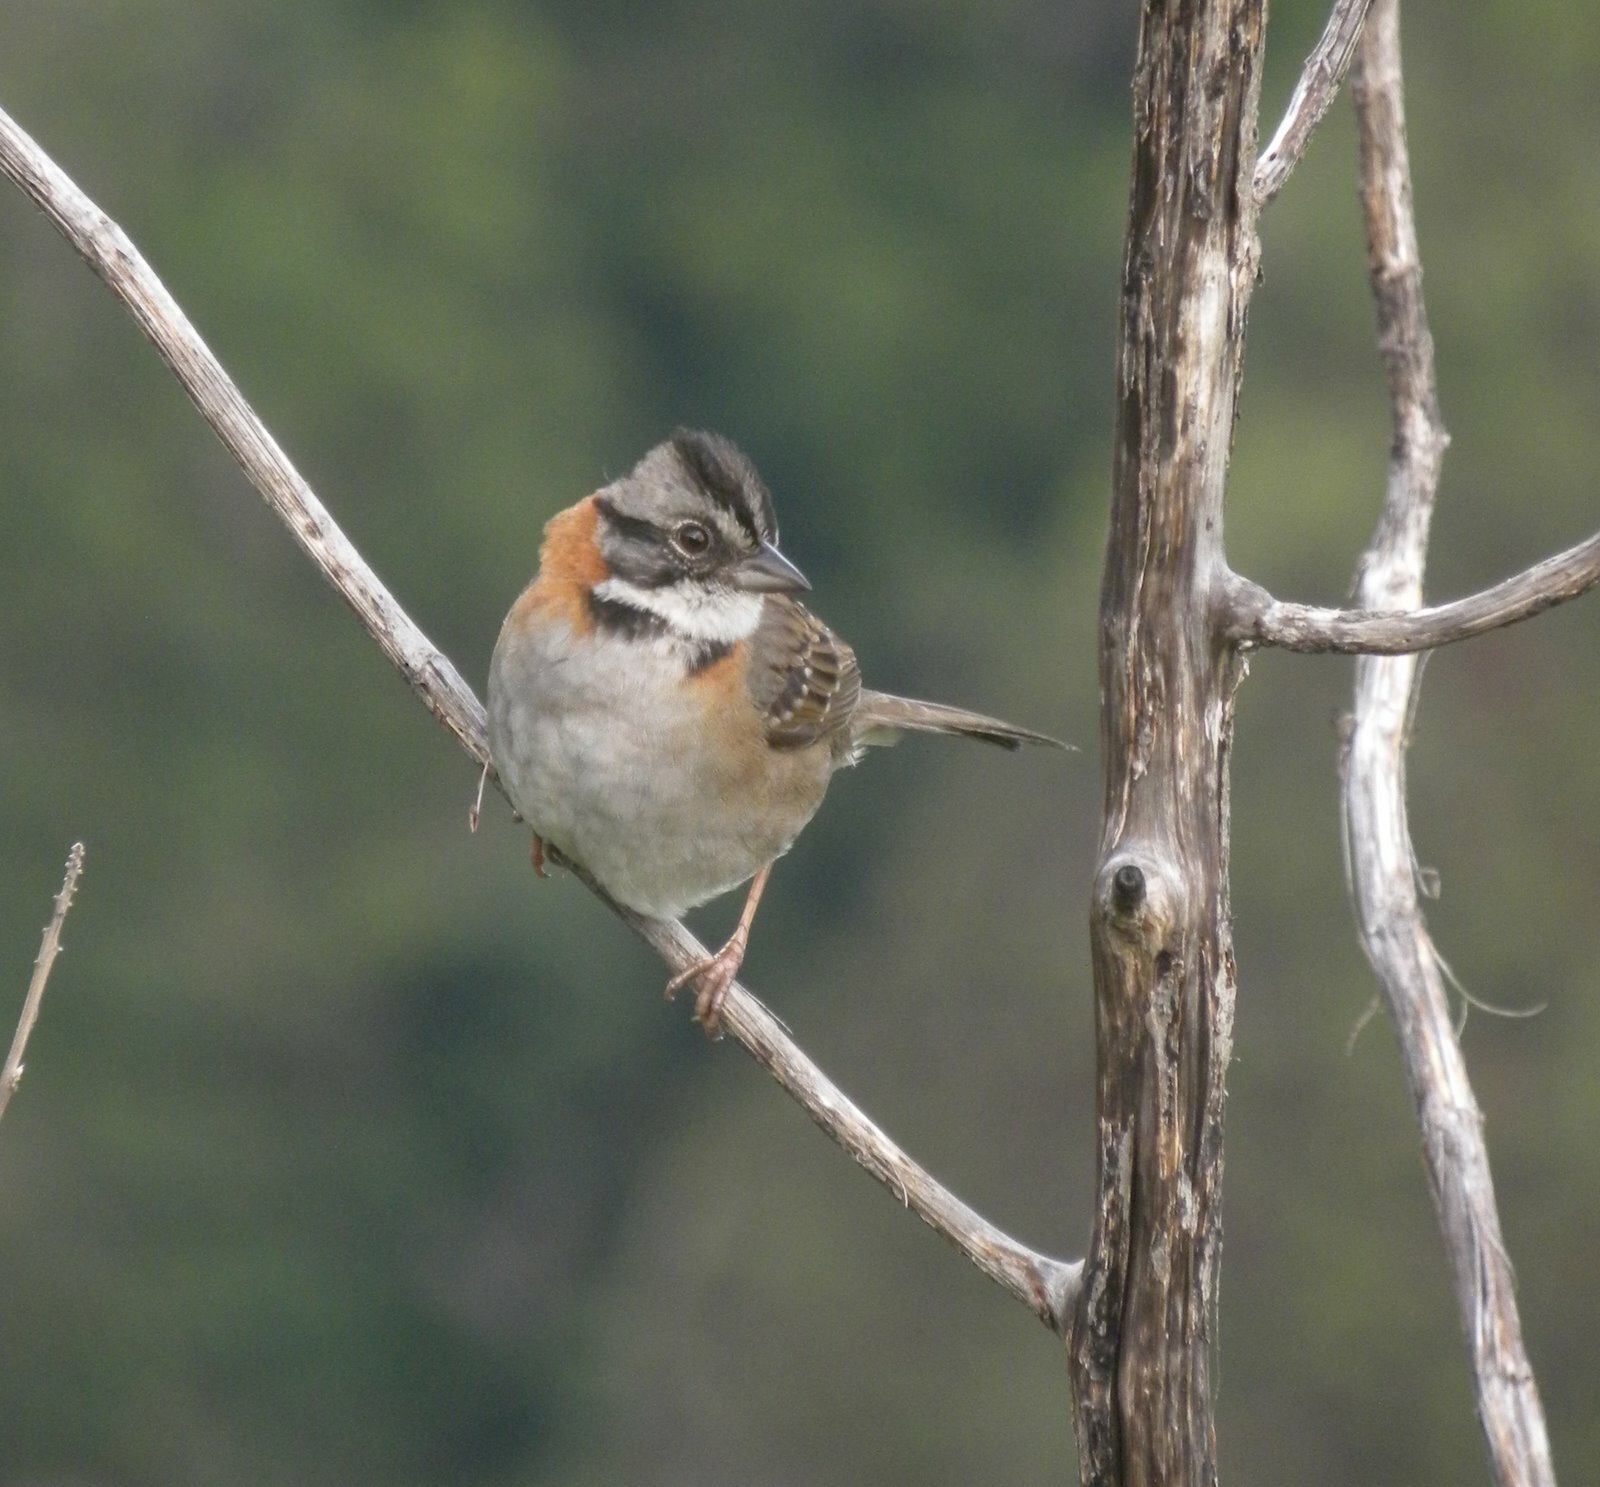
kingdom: Animalia
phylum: Chordata
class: Aves
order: Passeriformes
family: Passerellidae
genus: Zonotrichia
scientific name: Zonotrichia capensis
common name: Rufous-collared sparrow
